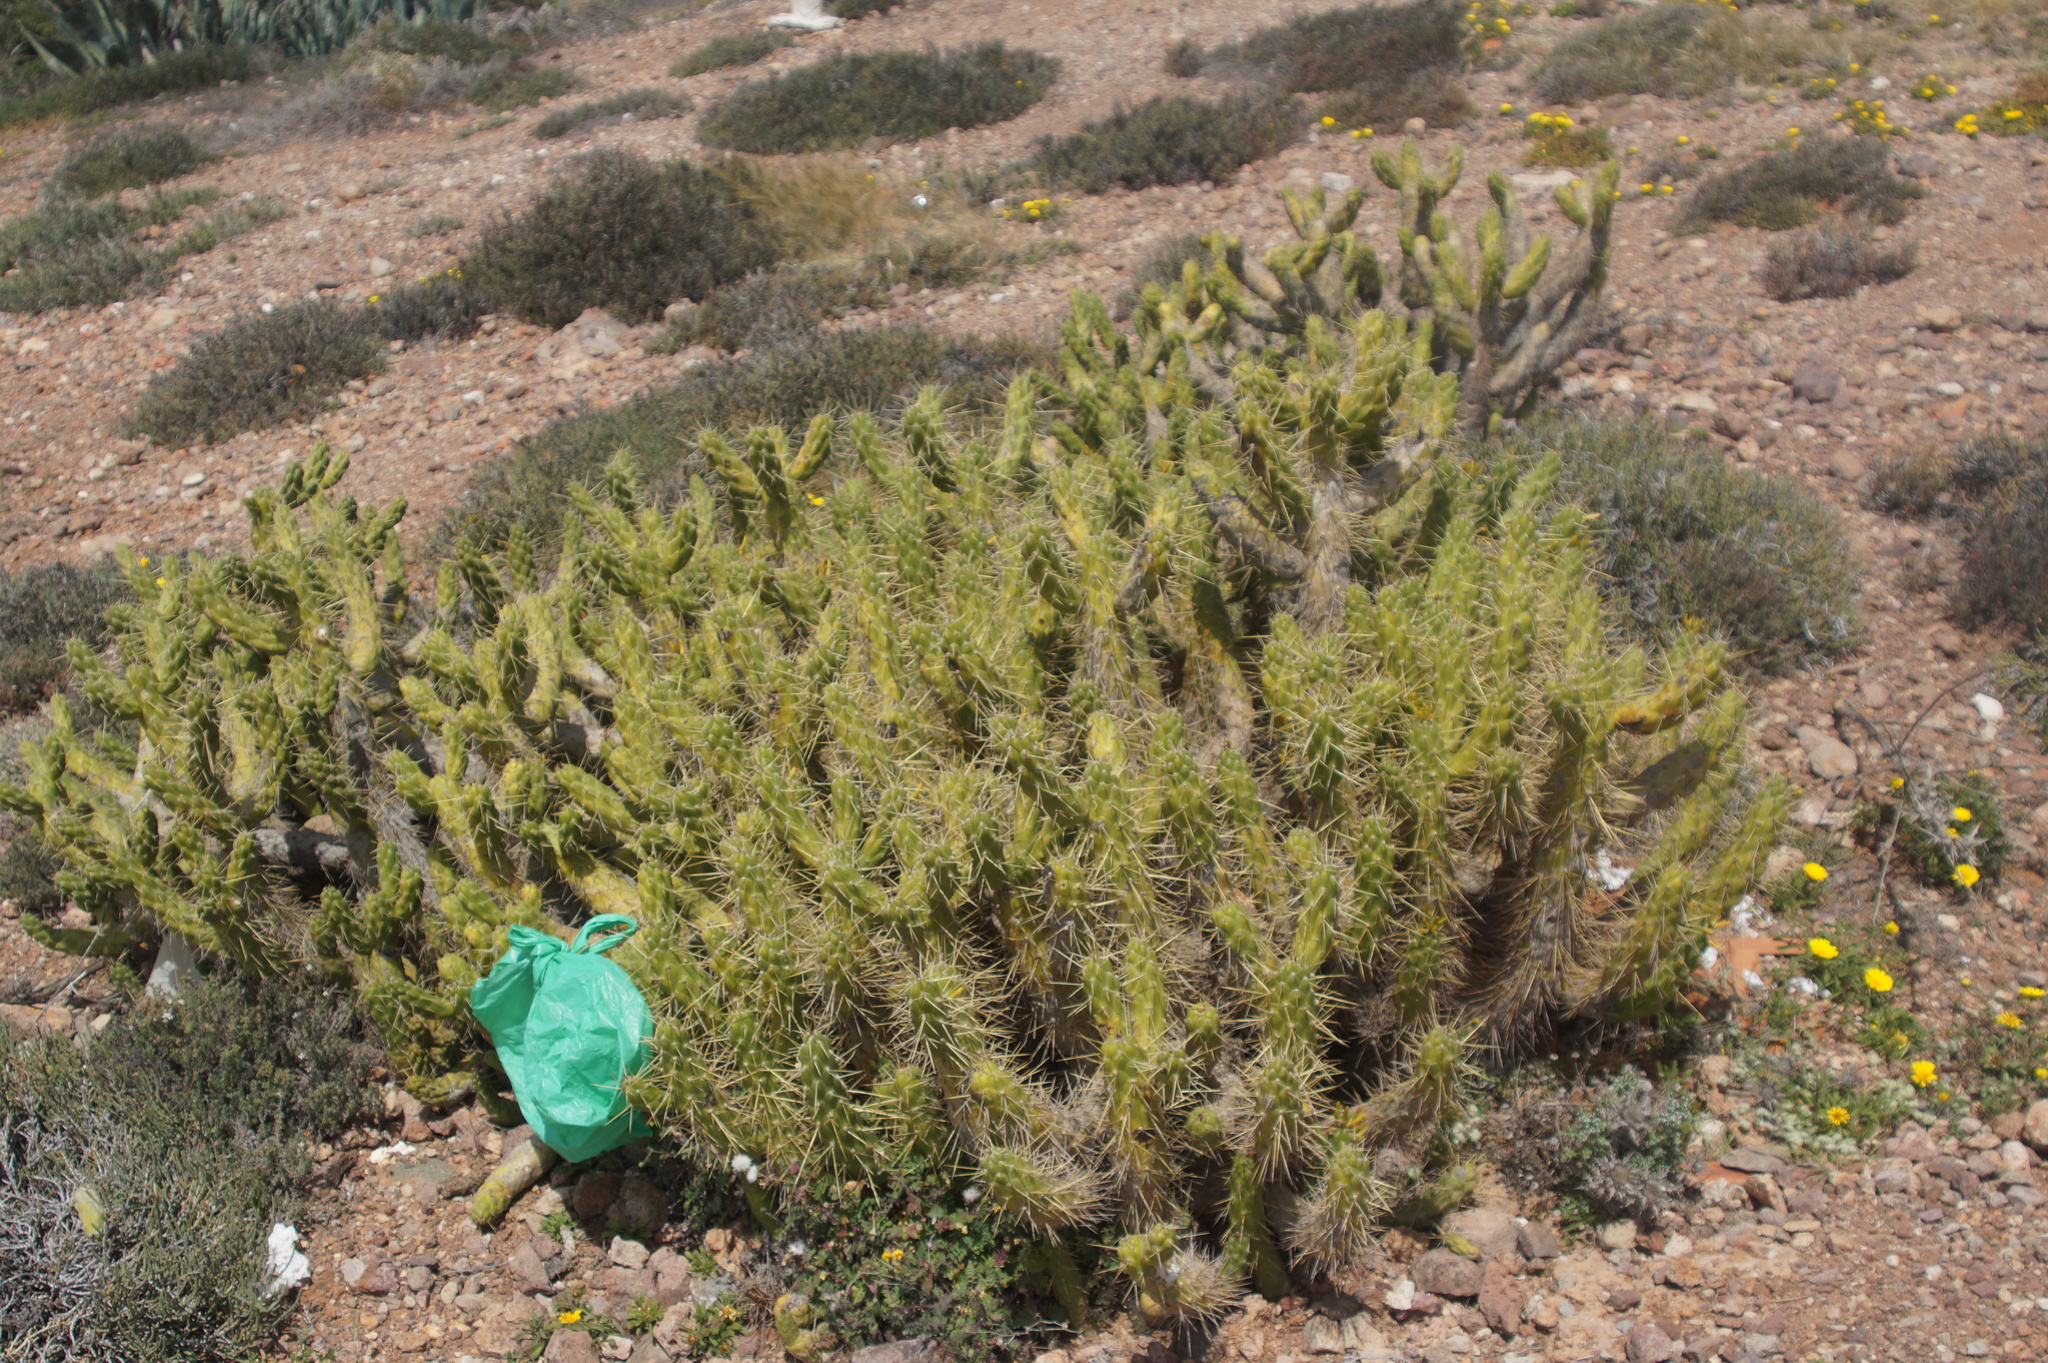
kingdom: Plantae
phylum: Tracheophyta
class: Magnoliopsida
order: Caryophyllales
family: Cactaceae
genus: Austrocylindropuntia
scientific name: Austrocylindropuntia subulata
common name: Eve's needle cactus
